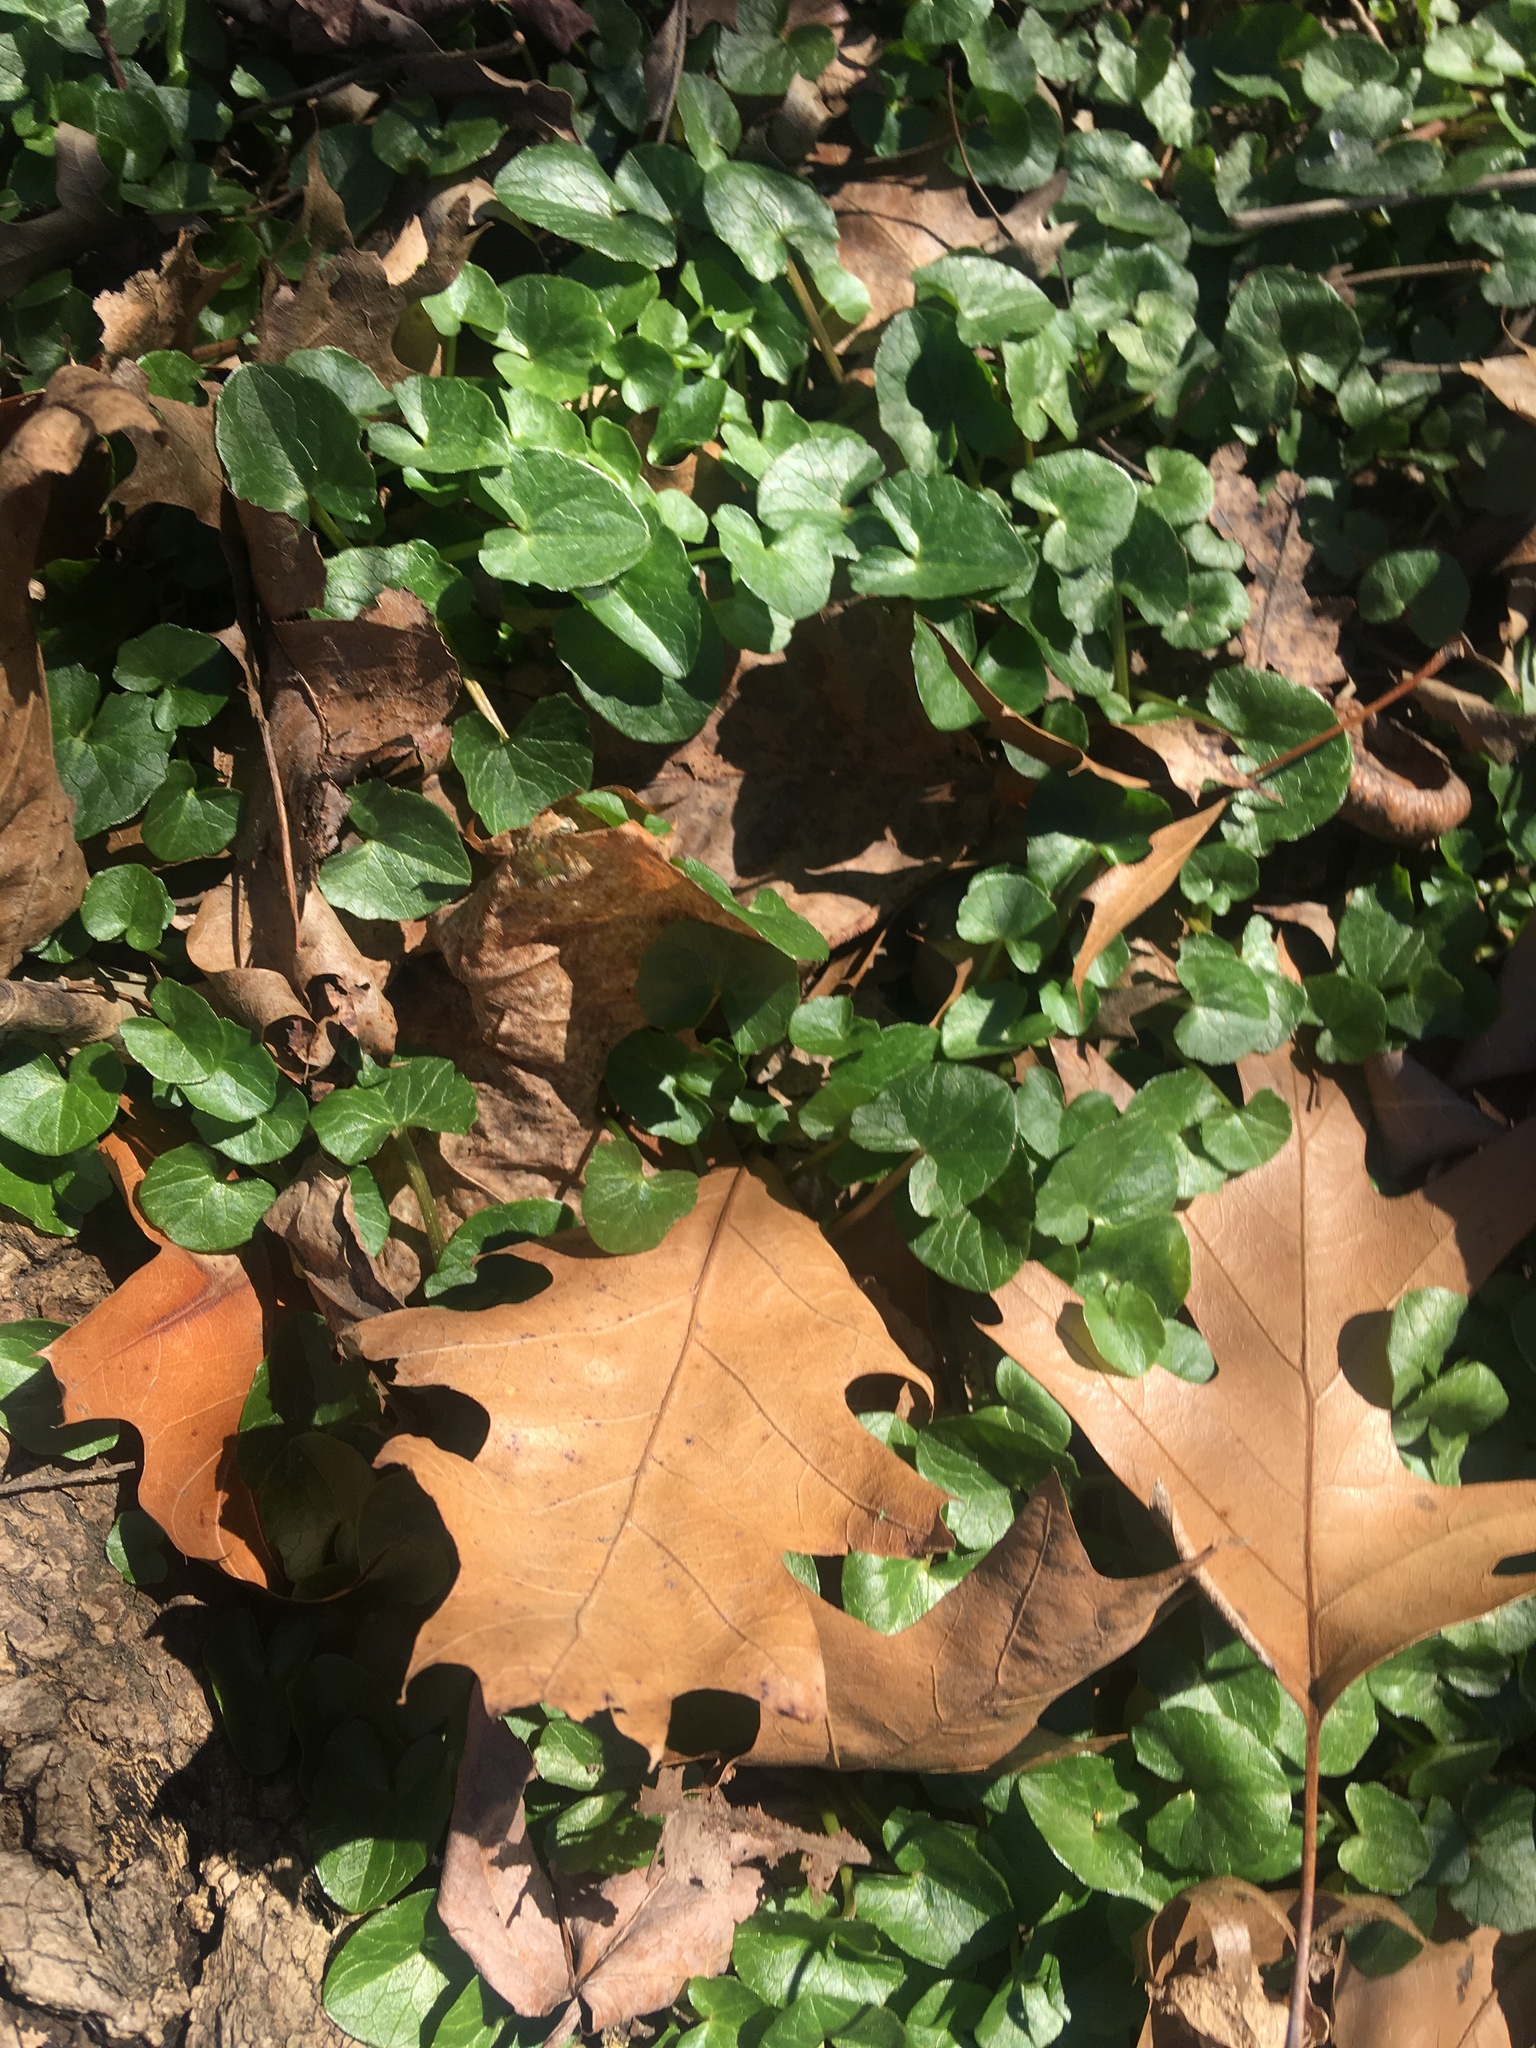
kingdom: Plantae
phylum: Tracheophyta
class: Magnoliopsida
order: Ranunculales
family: Ranunculaceae
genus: Ficaria
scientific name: Ficaria verna
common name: Lesser celandine
